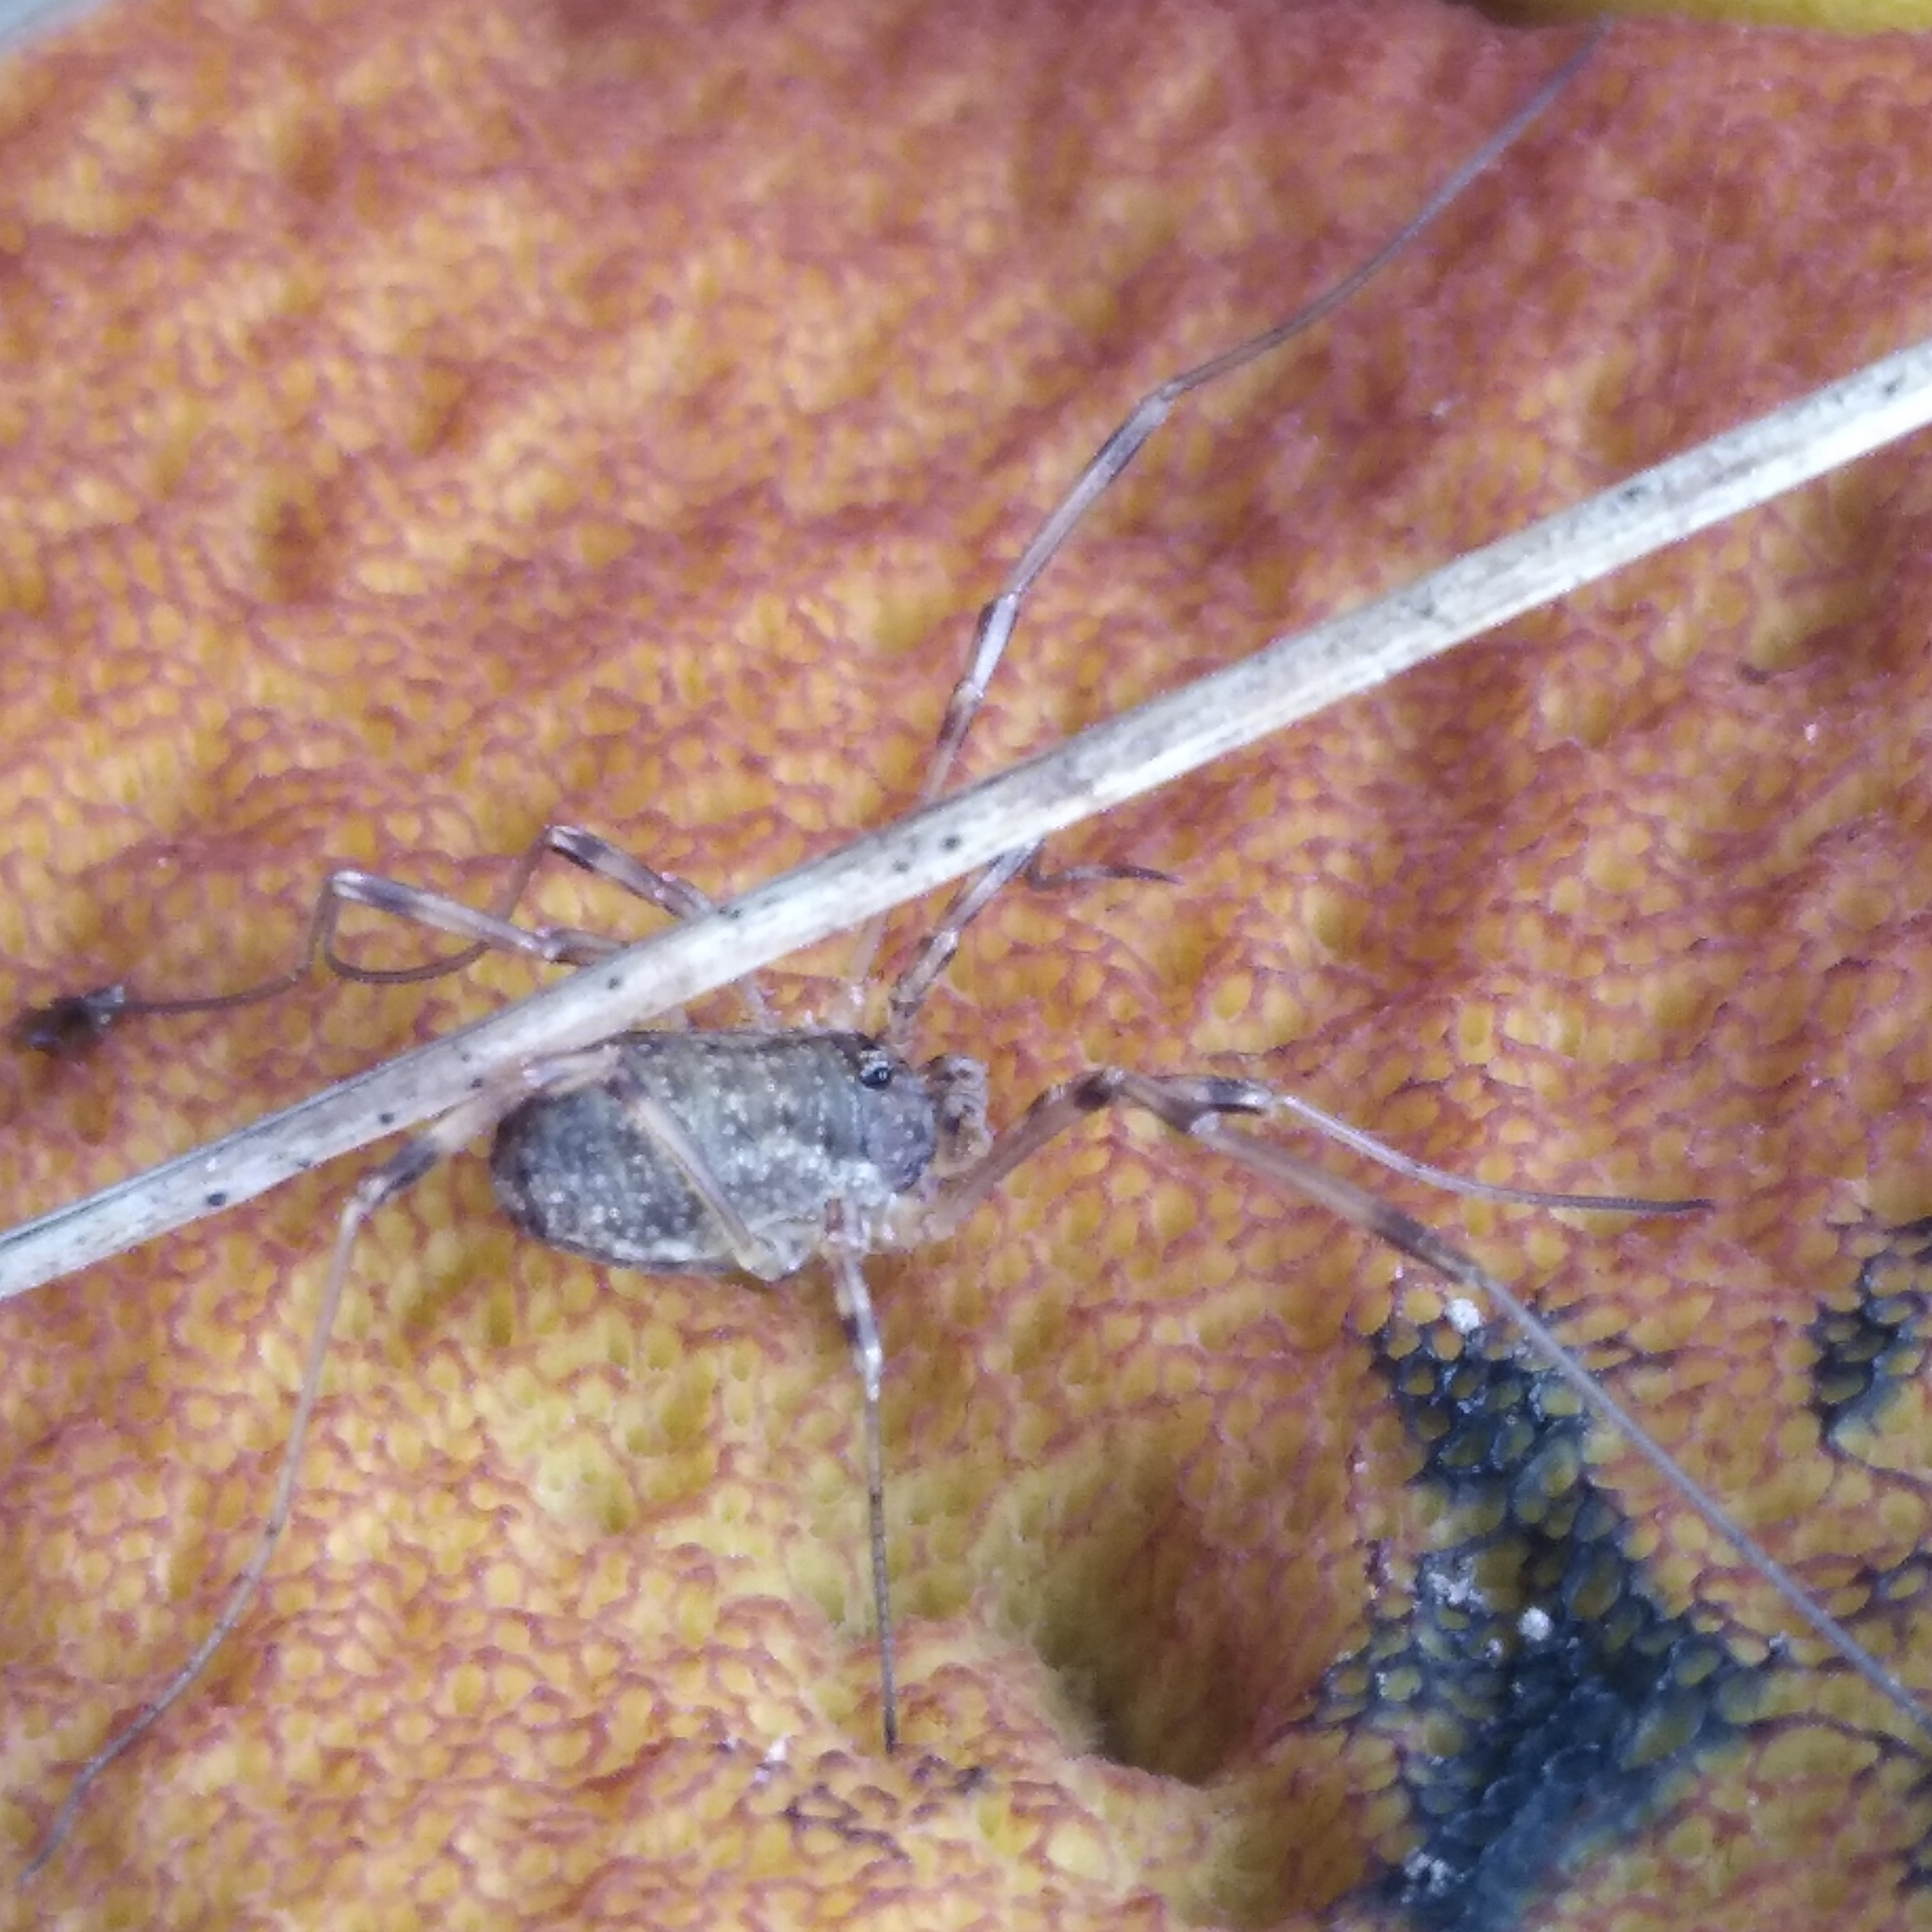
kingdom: Animalia
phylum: Arthropoda
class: Arachnida
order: Opiliones
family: Phalangiidae
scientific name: Phalangiidae
